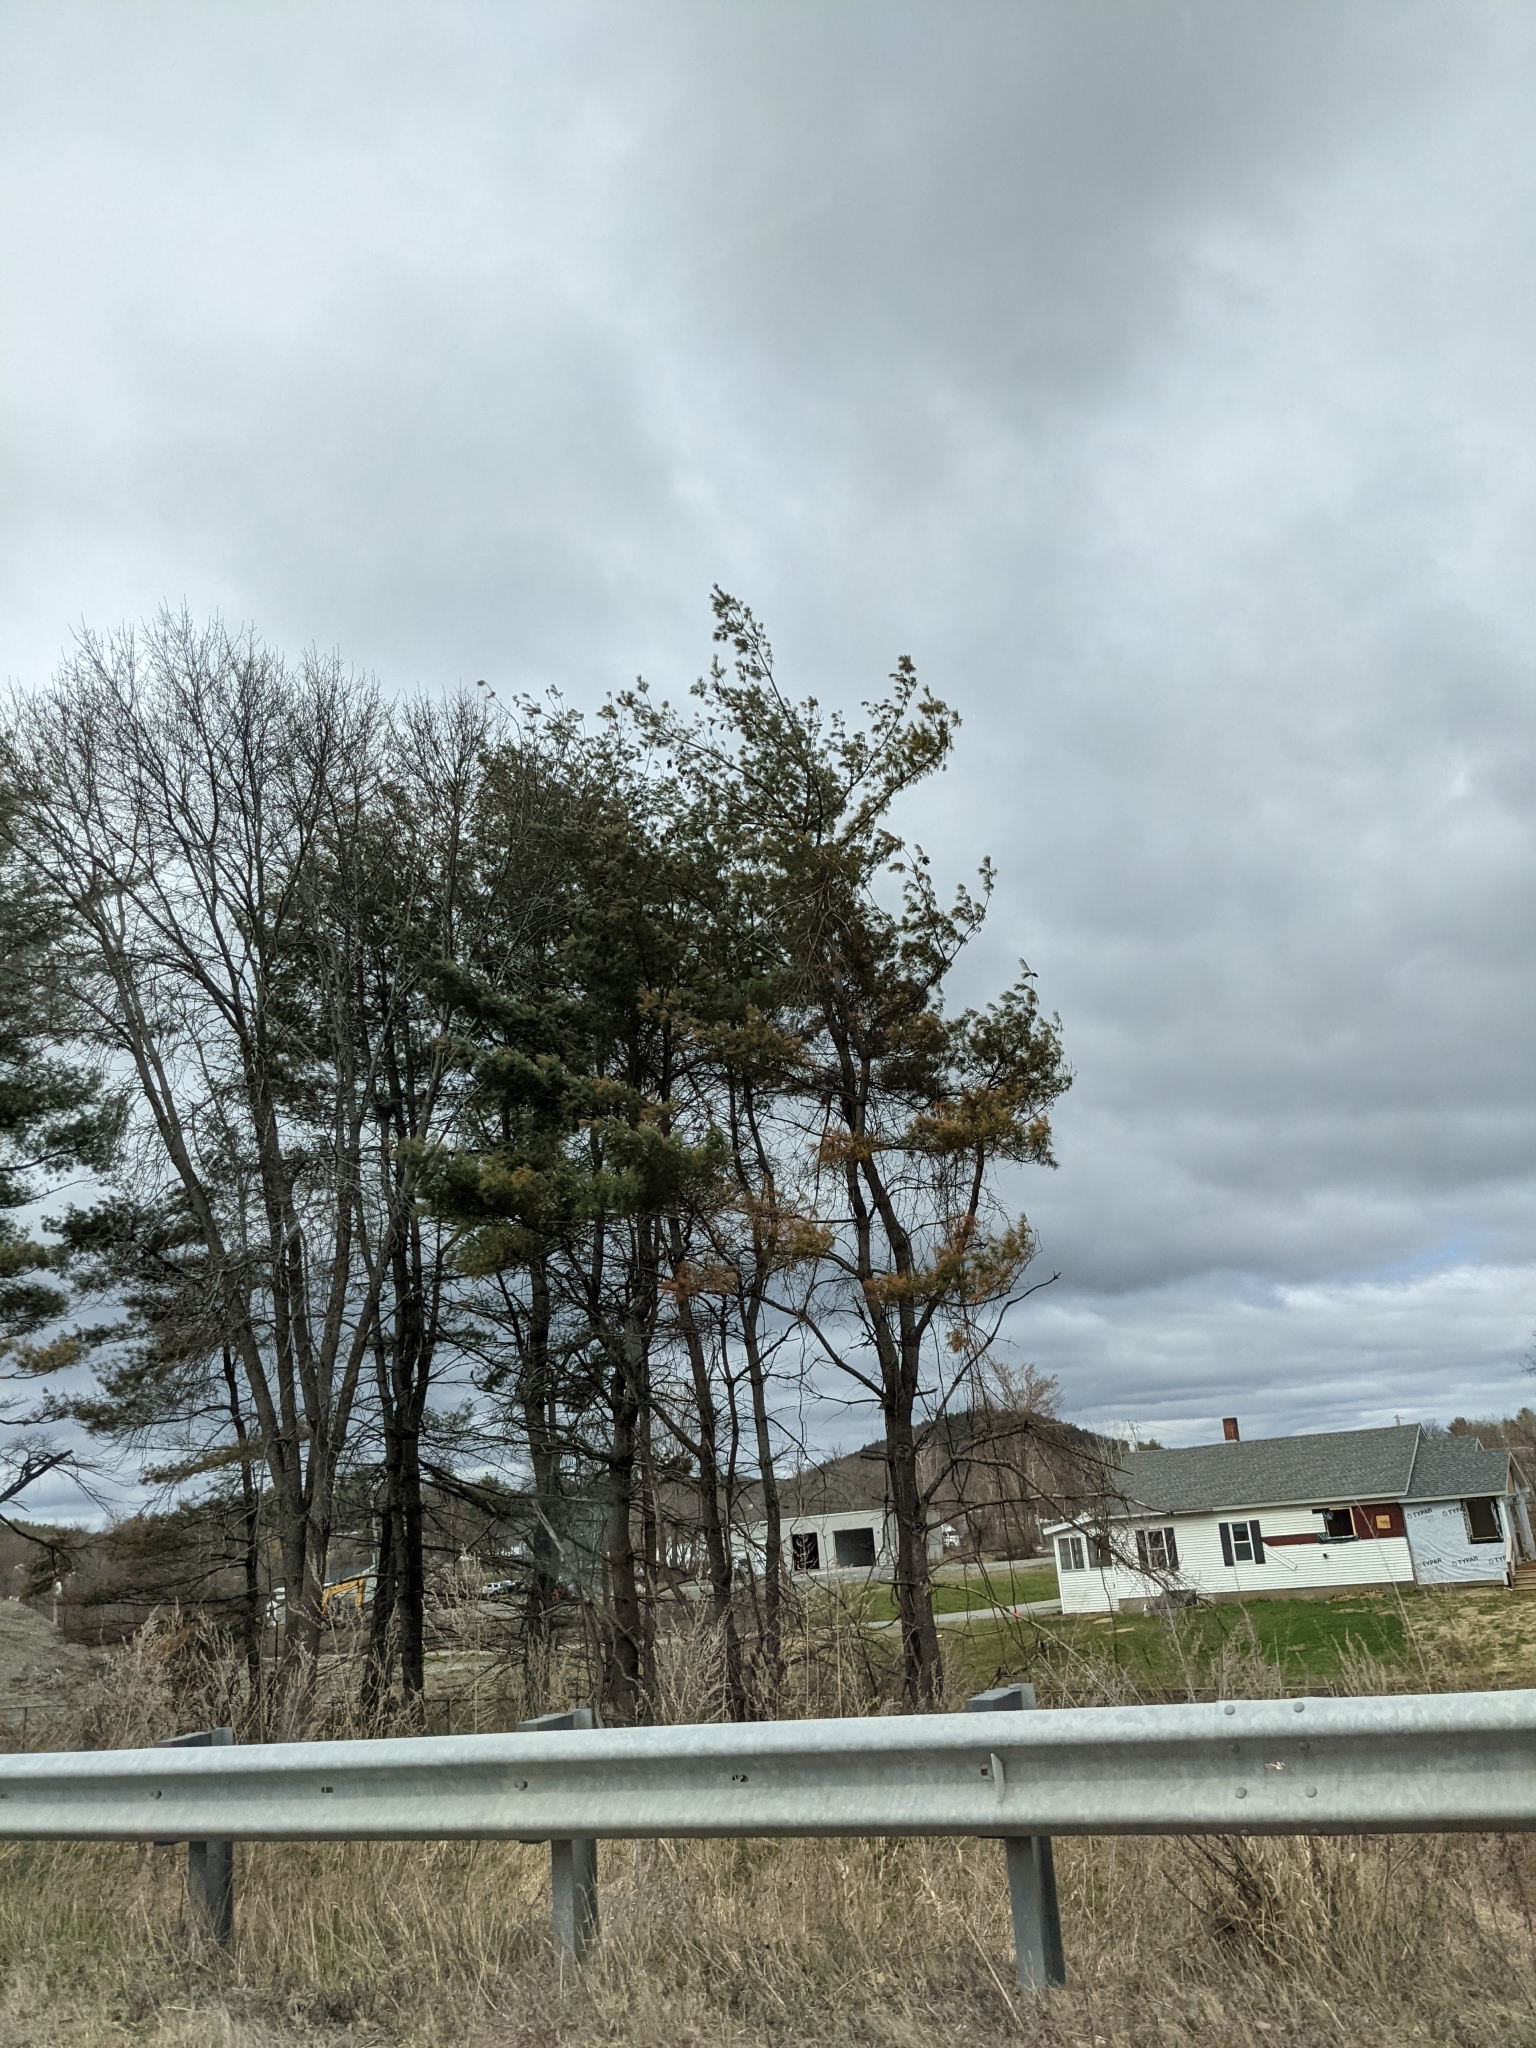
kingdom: Plantae
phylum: Tracheophyta
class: Pinopsida
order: Pinales
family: Pinaceae
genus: Pinus
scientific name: Pinus strobus
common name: Weymouth pine
